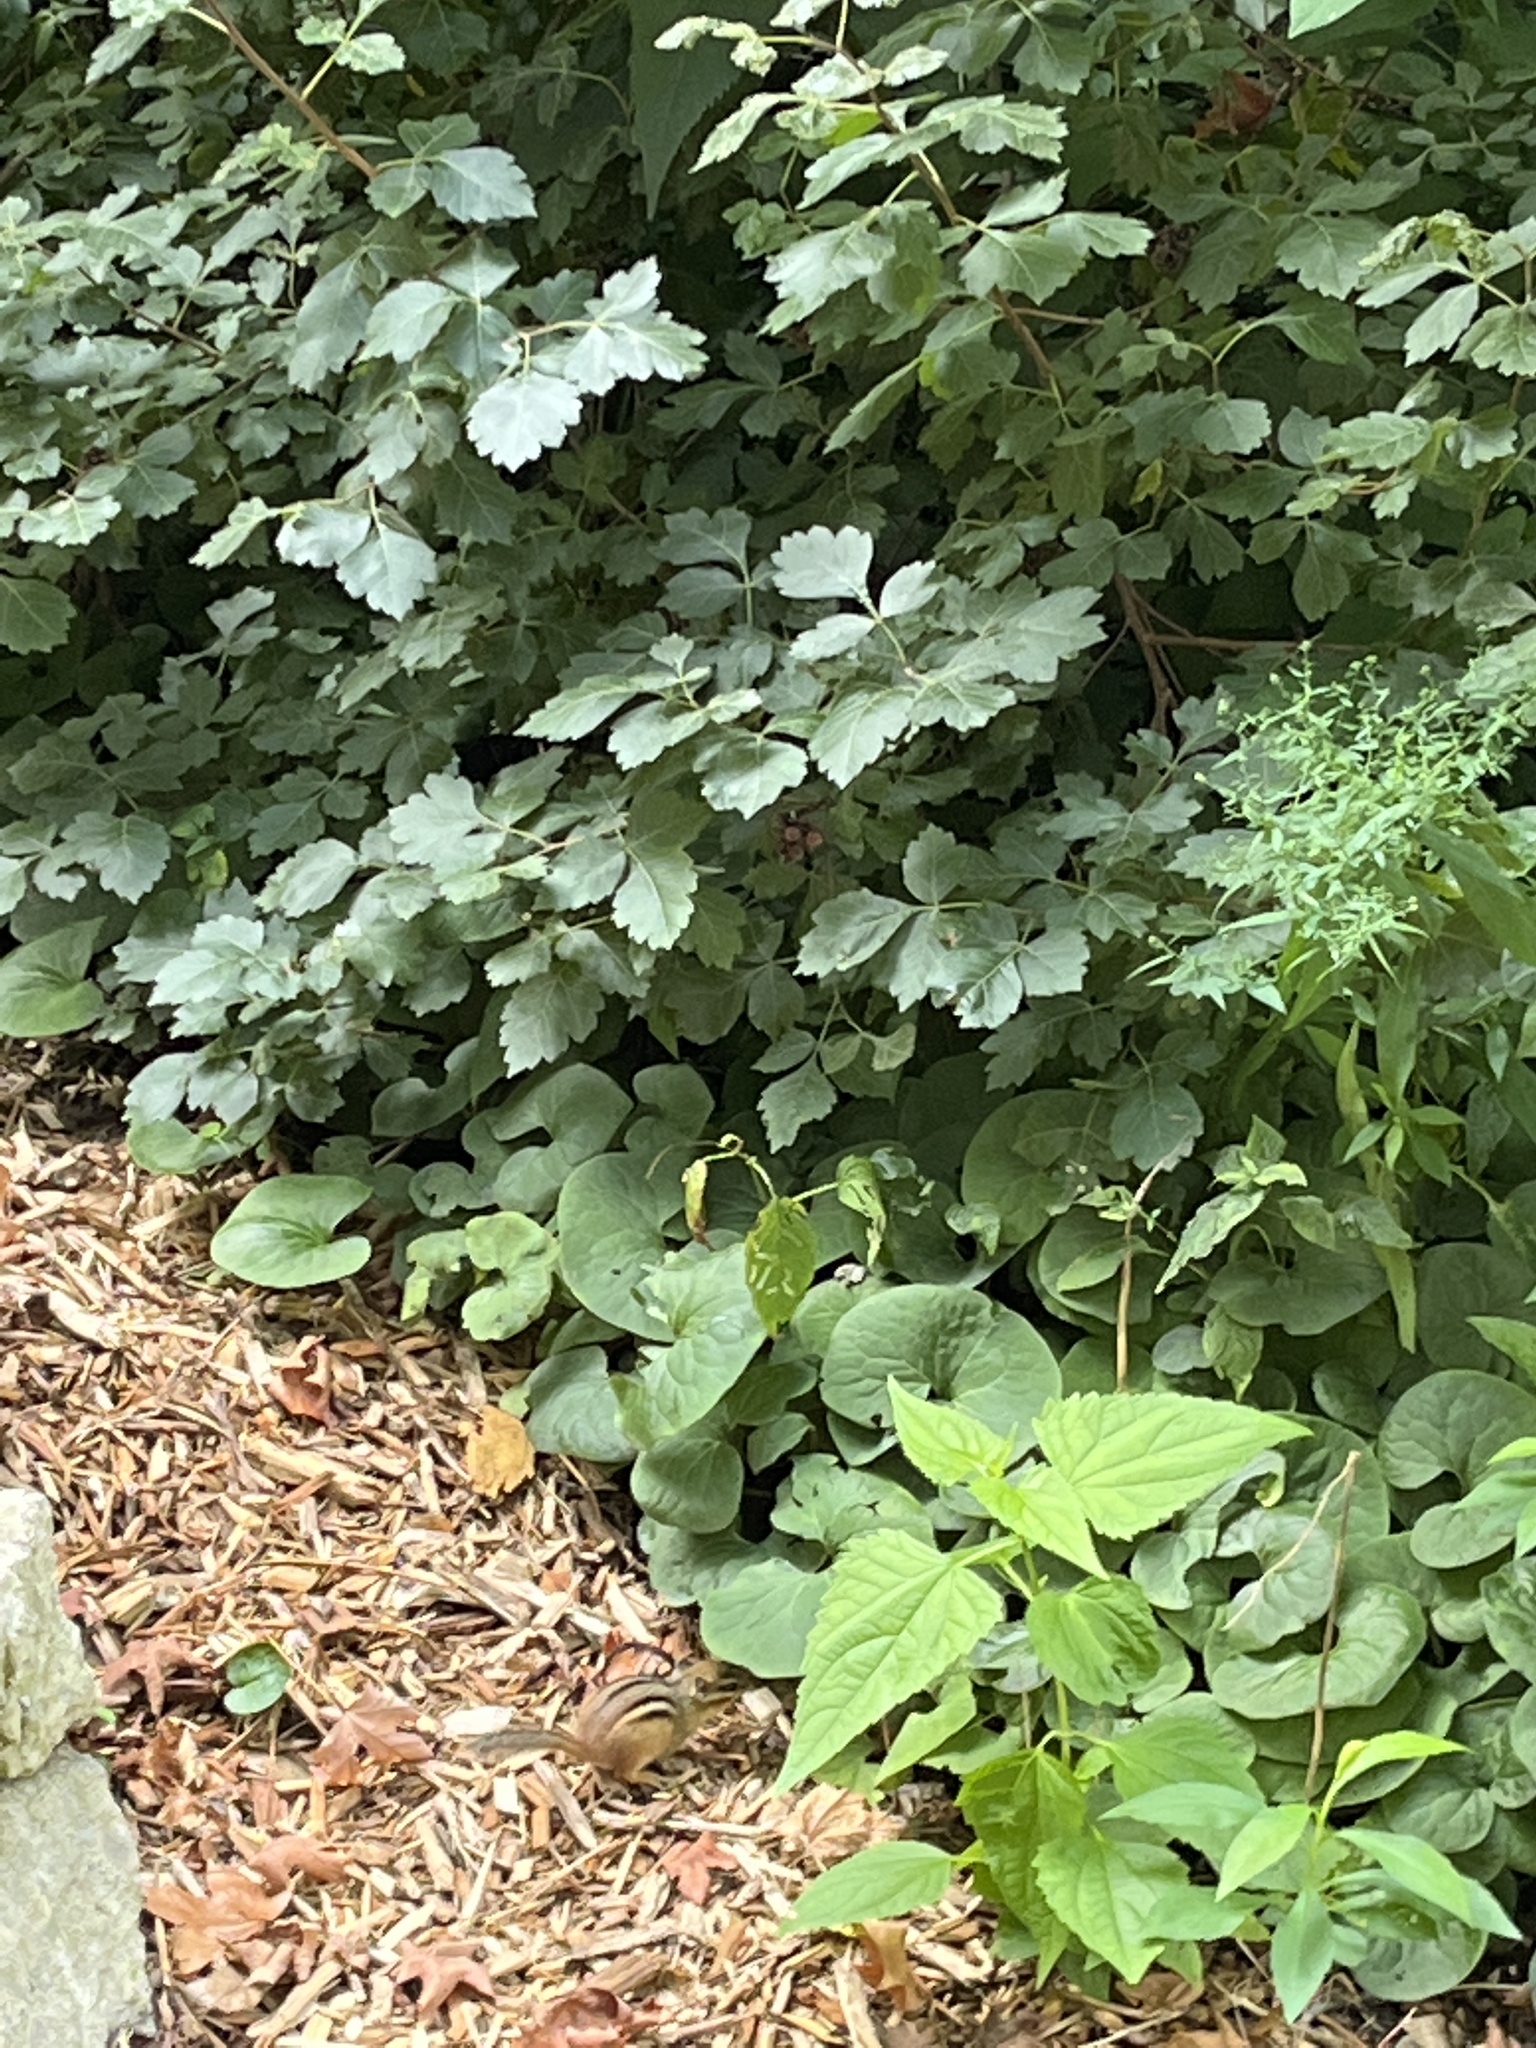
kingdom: Animalia
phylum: Chordata
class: Mammalia
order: Rodentia
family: Sciuridae
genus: Tamias
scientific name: Tamias striatus
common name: Eastern chipmunk
